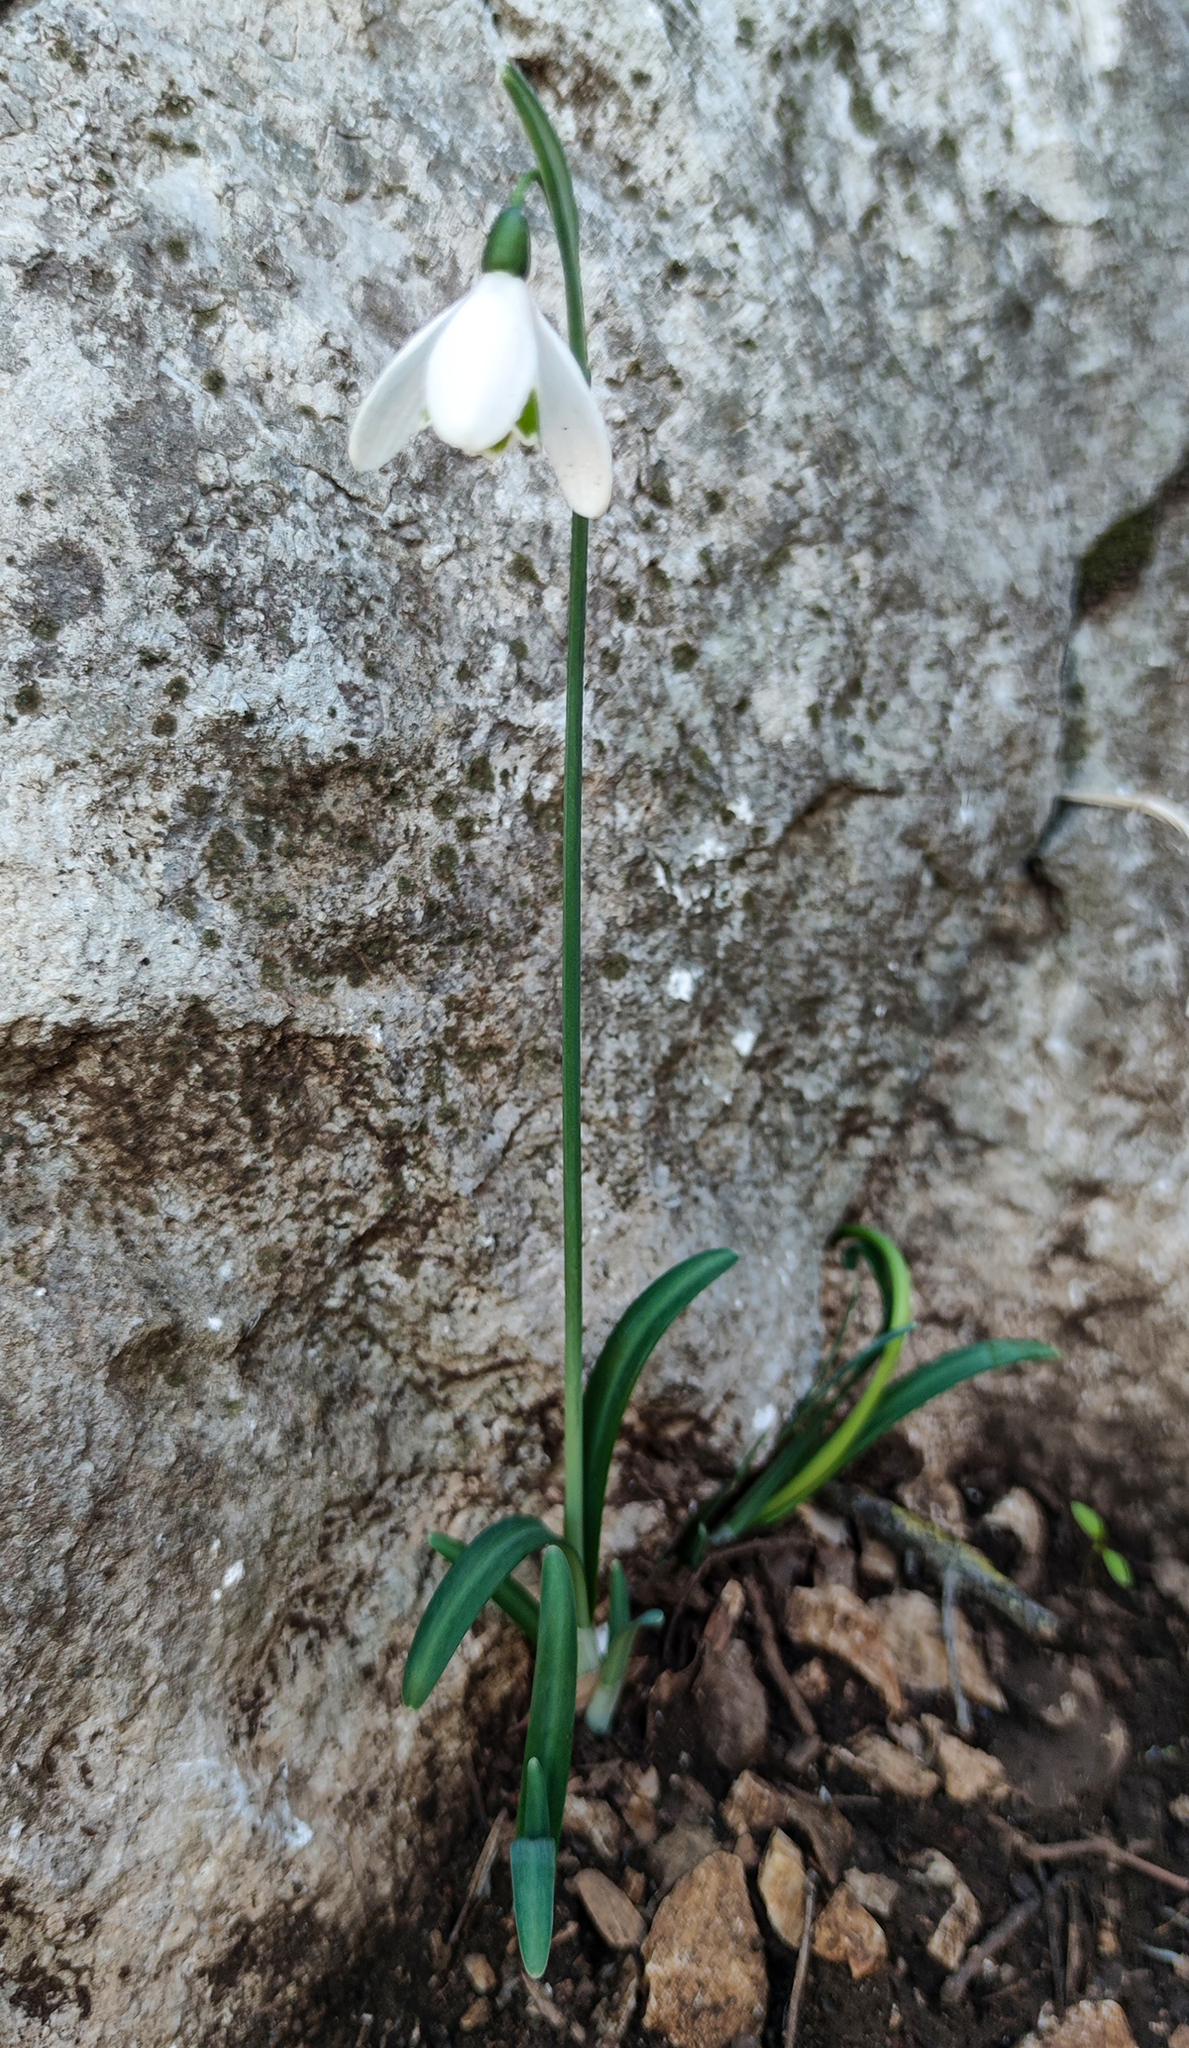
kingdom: Plantae
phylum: Tracheophyta
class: Liliopsida
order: Asparagales
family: Amaryllidaceae
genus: Galanthus
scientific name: Galanthus peshmenii
